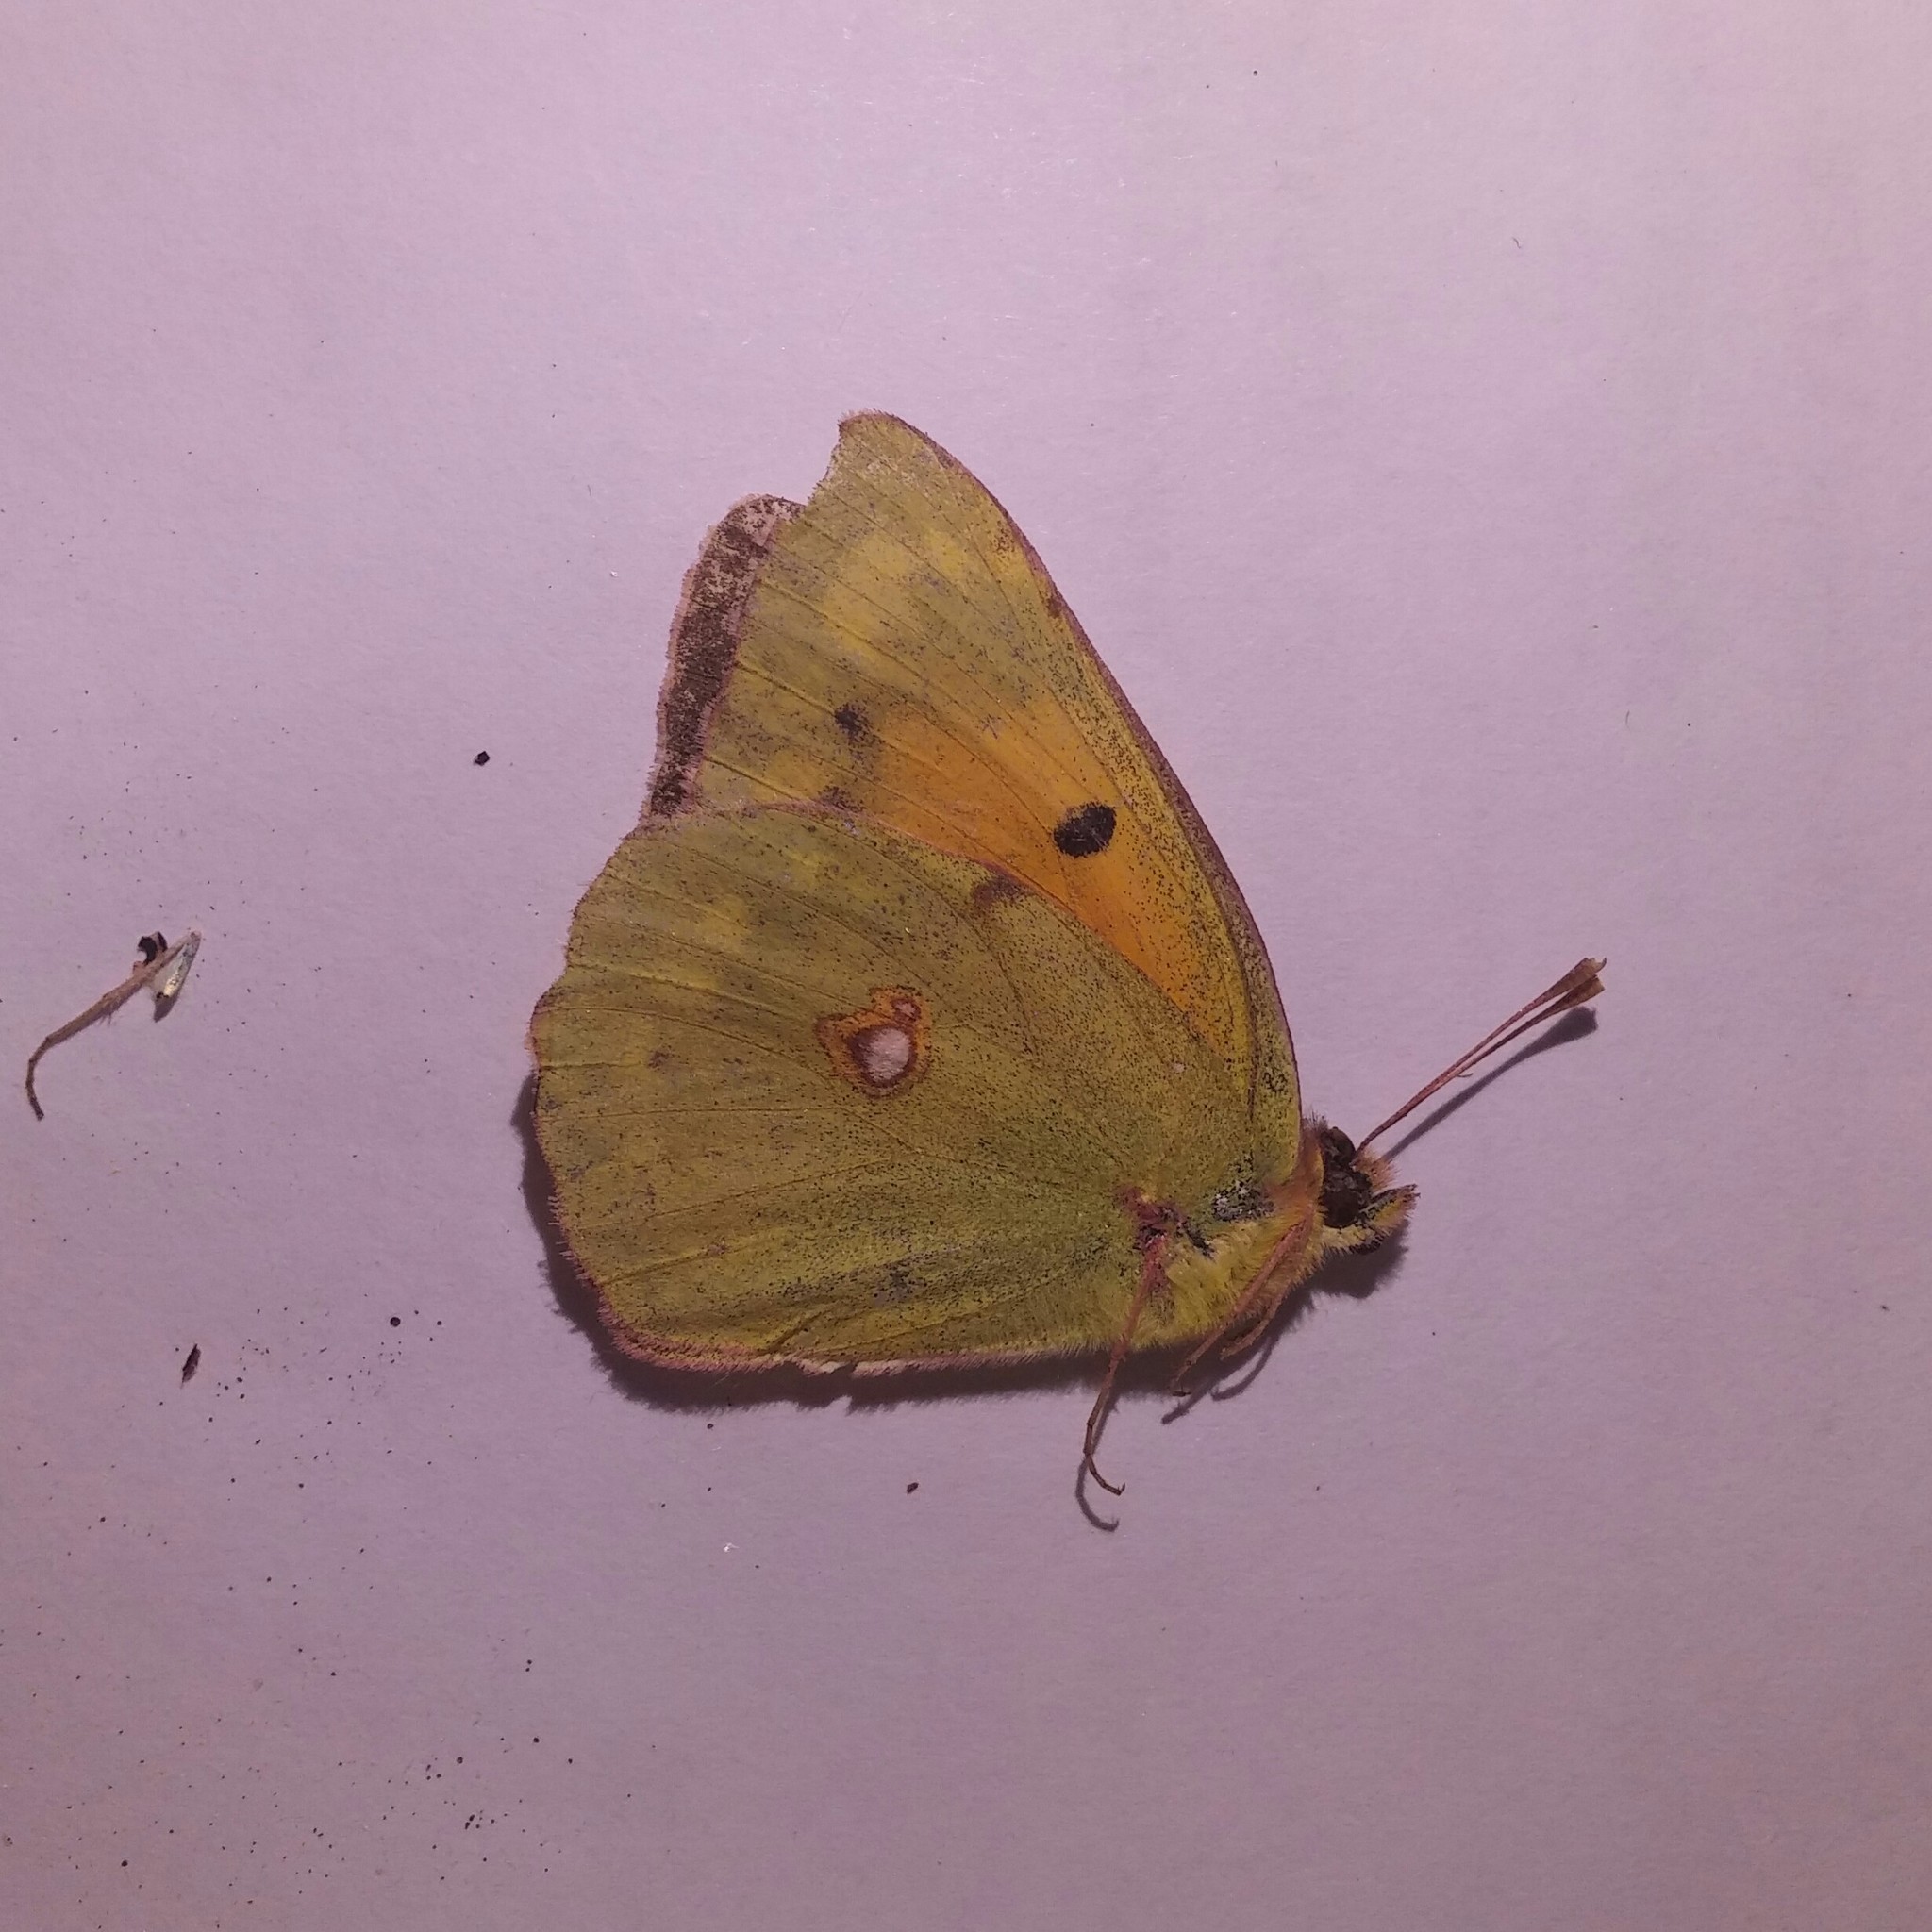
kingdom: Animalia
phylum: Arthropoda
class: Insecta
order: Lepidoptera
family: Pieridae
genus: Colias
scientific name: Colias croceus
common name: Clouded yellow
